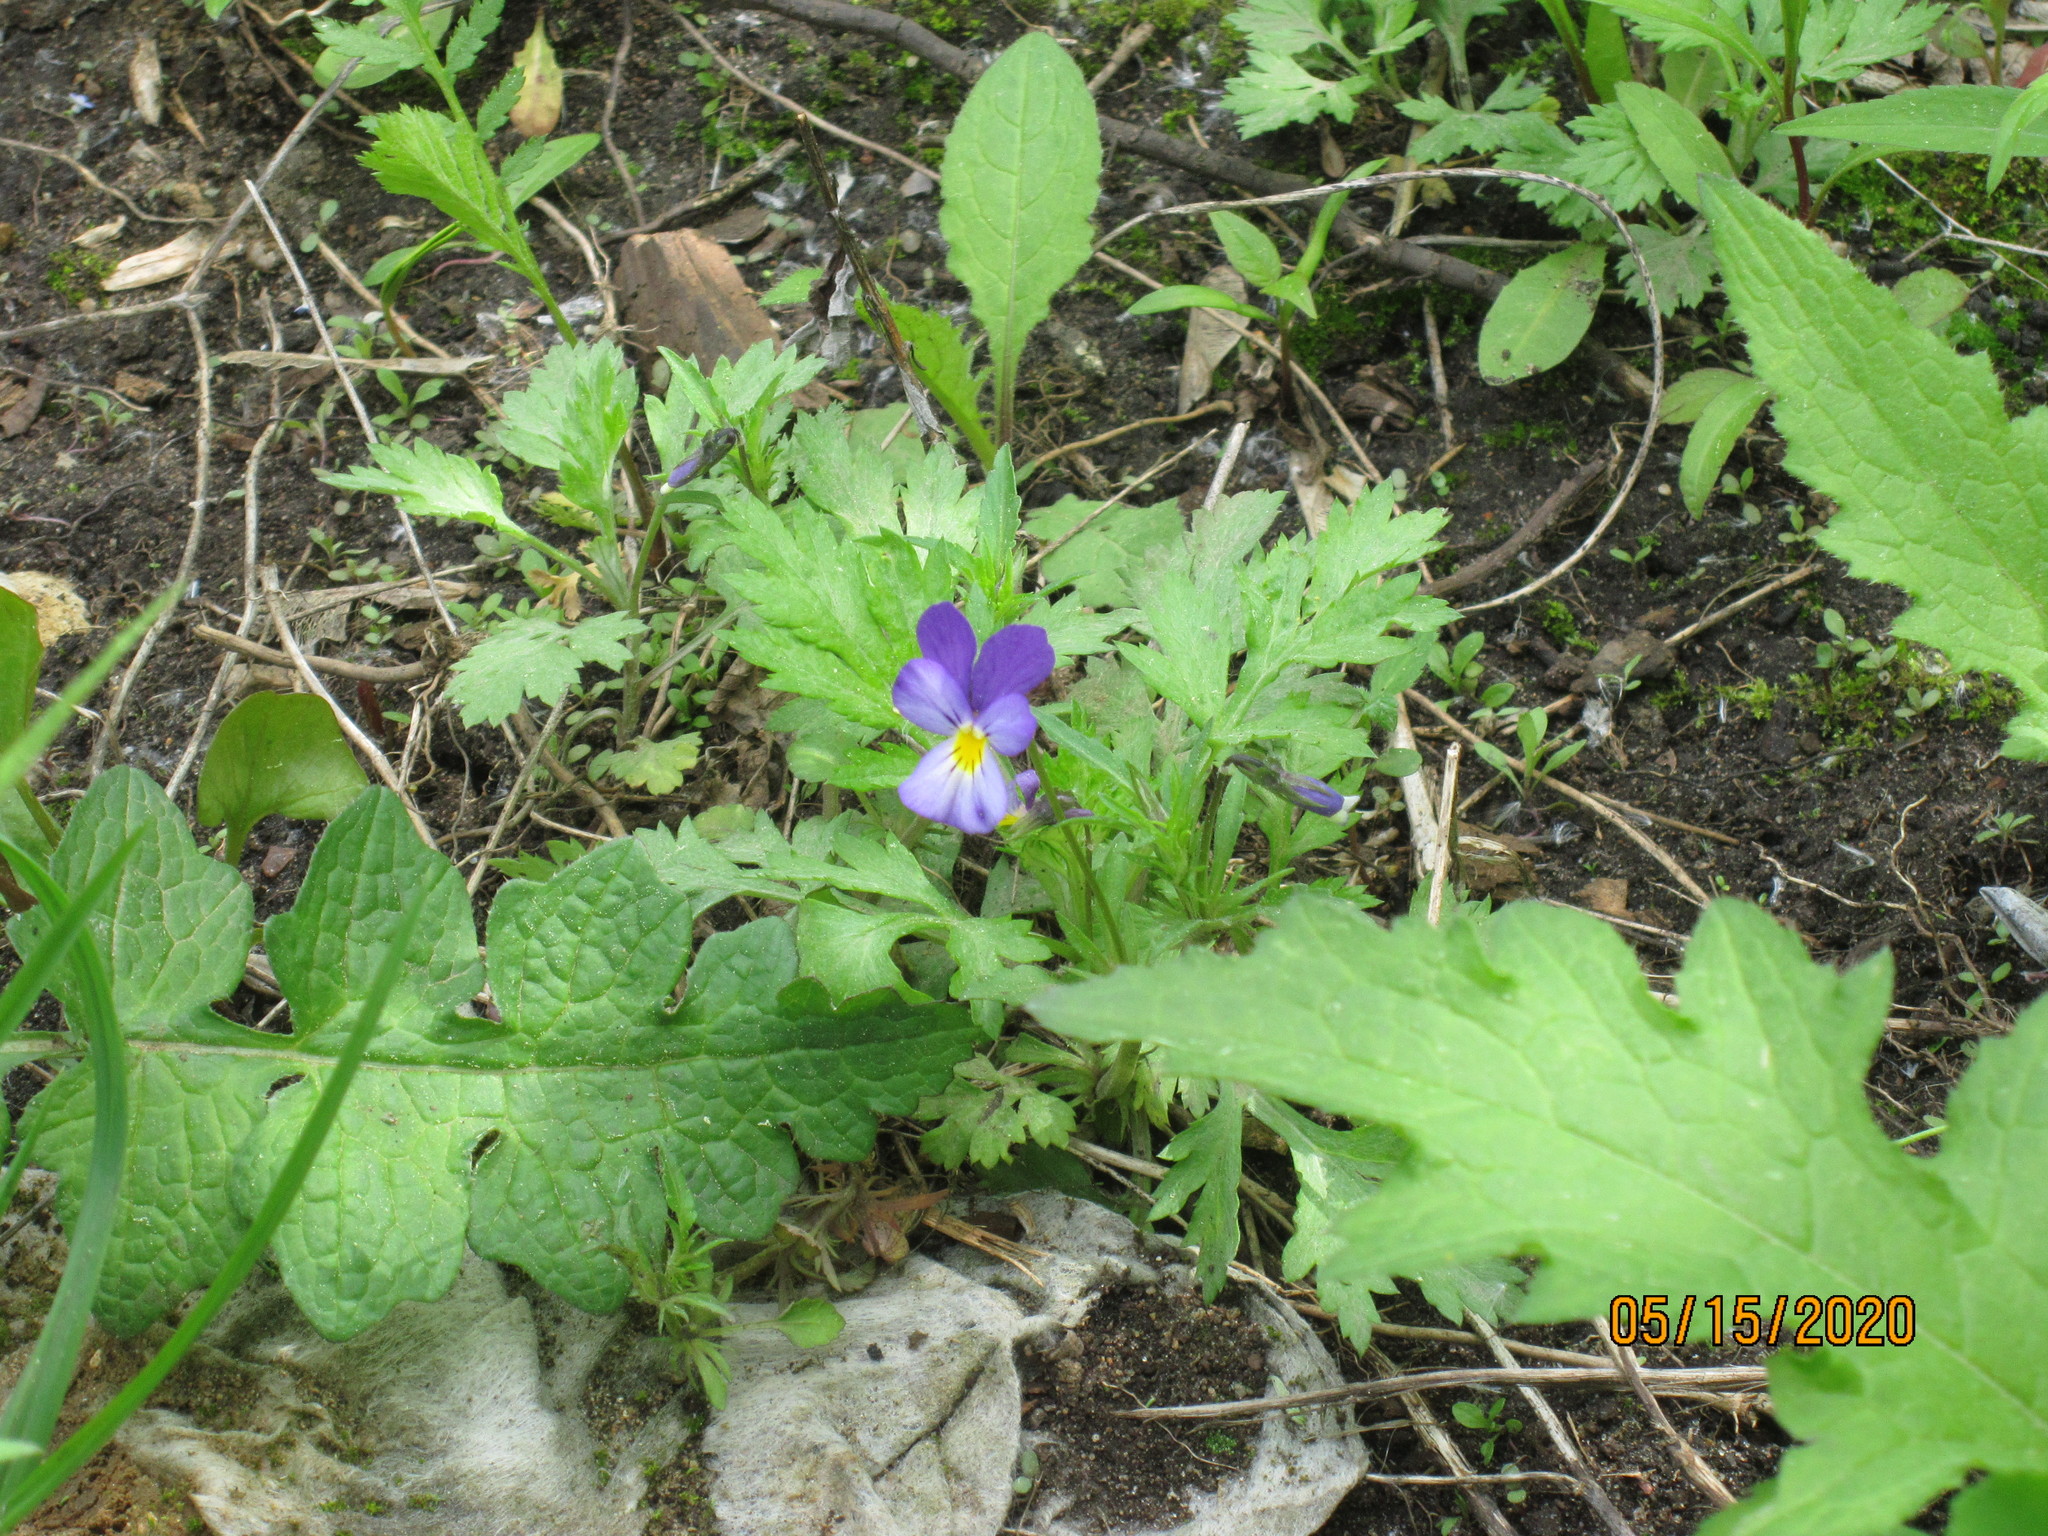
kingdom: Plantae
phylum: Tracheophyta
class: Magnoliopsida
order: Malpighiales
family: Violaceae
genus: Viola
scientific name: Viola tricolor
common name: Pansy
